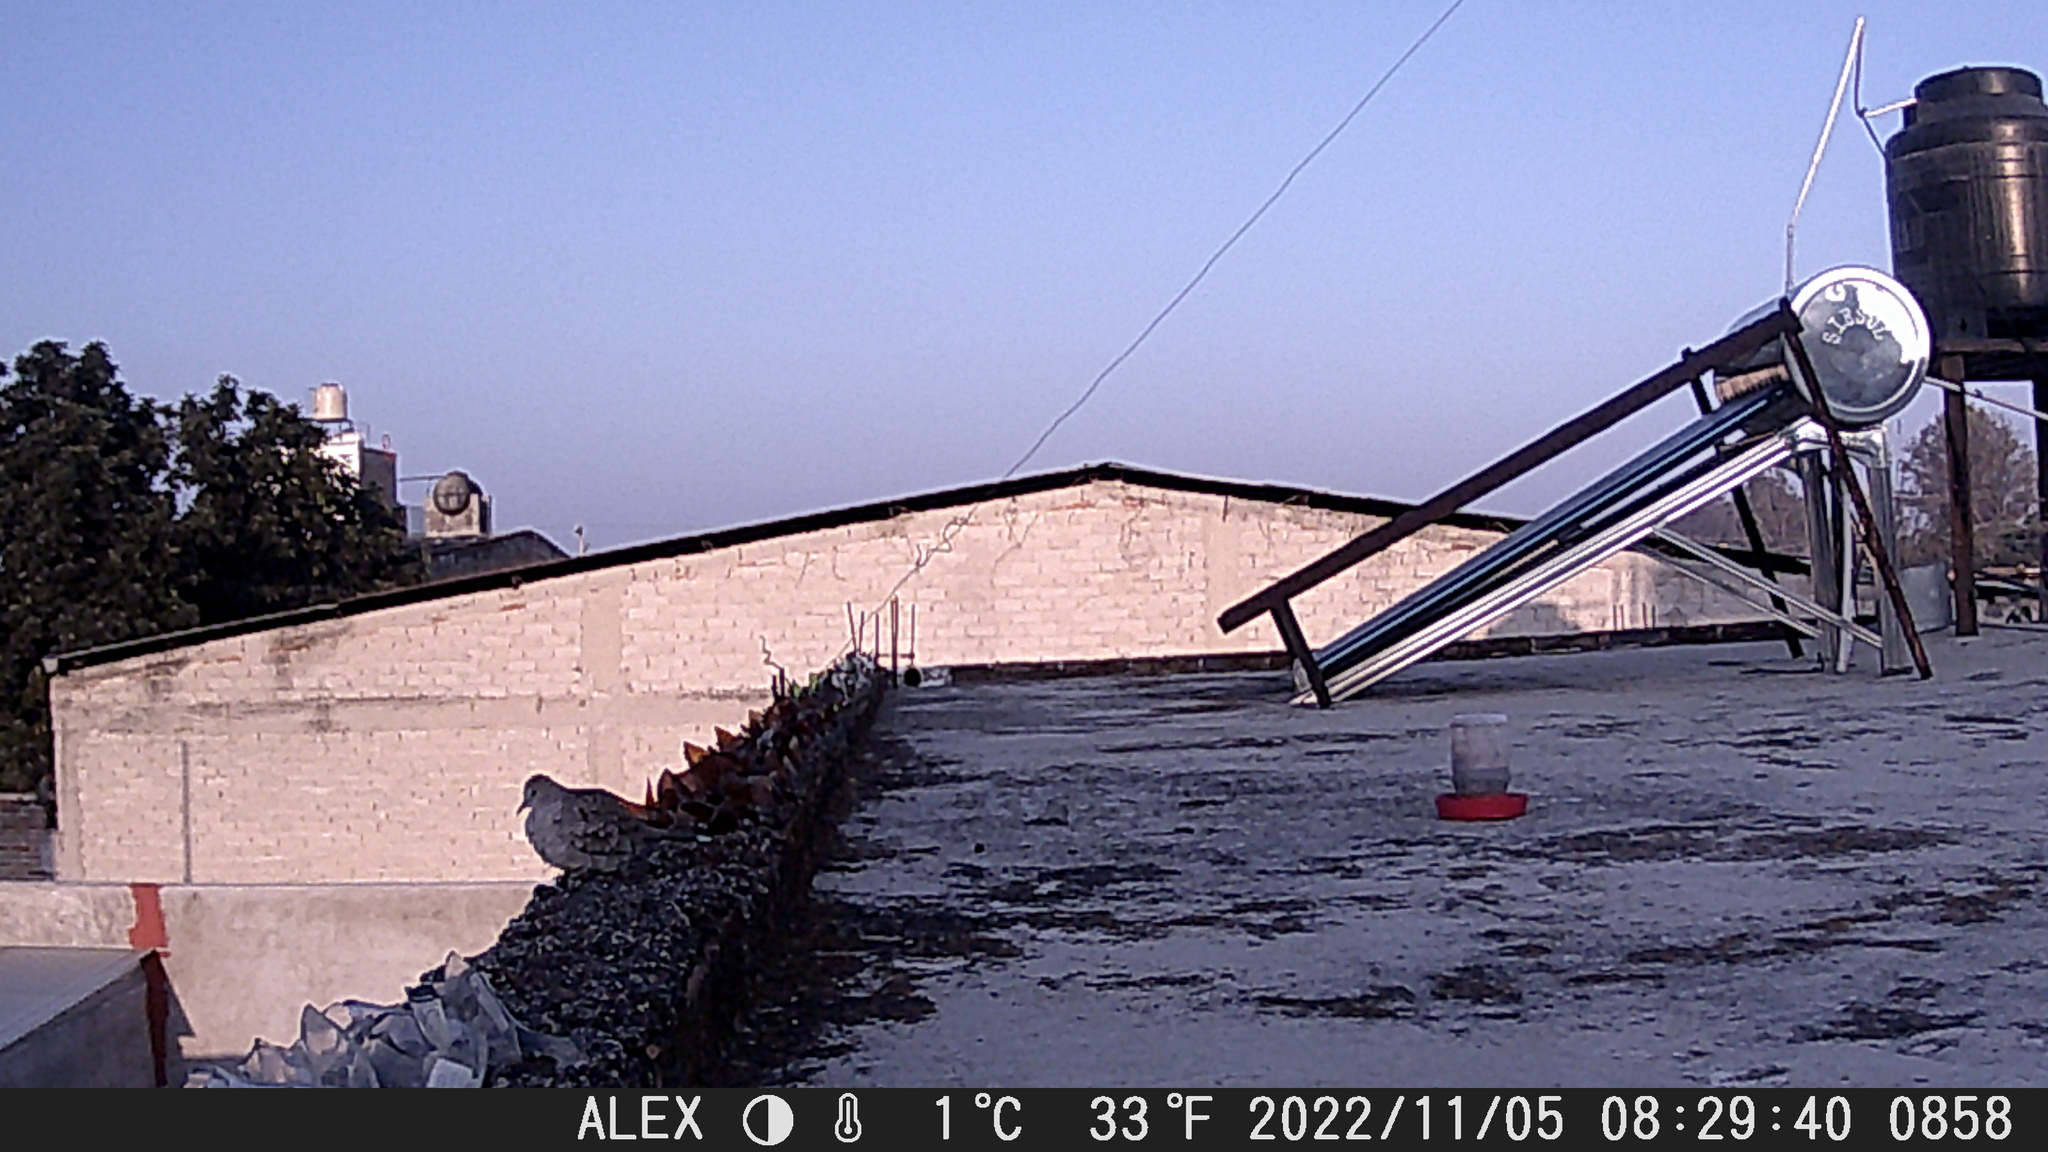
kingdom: Animalia
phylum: Chordata
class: Aves
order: Columbiformes
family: Columbidae
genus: Columbina
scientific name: Columbina inca
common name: Inca dove
